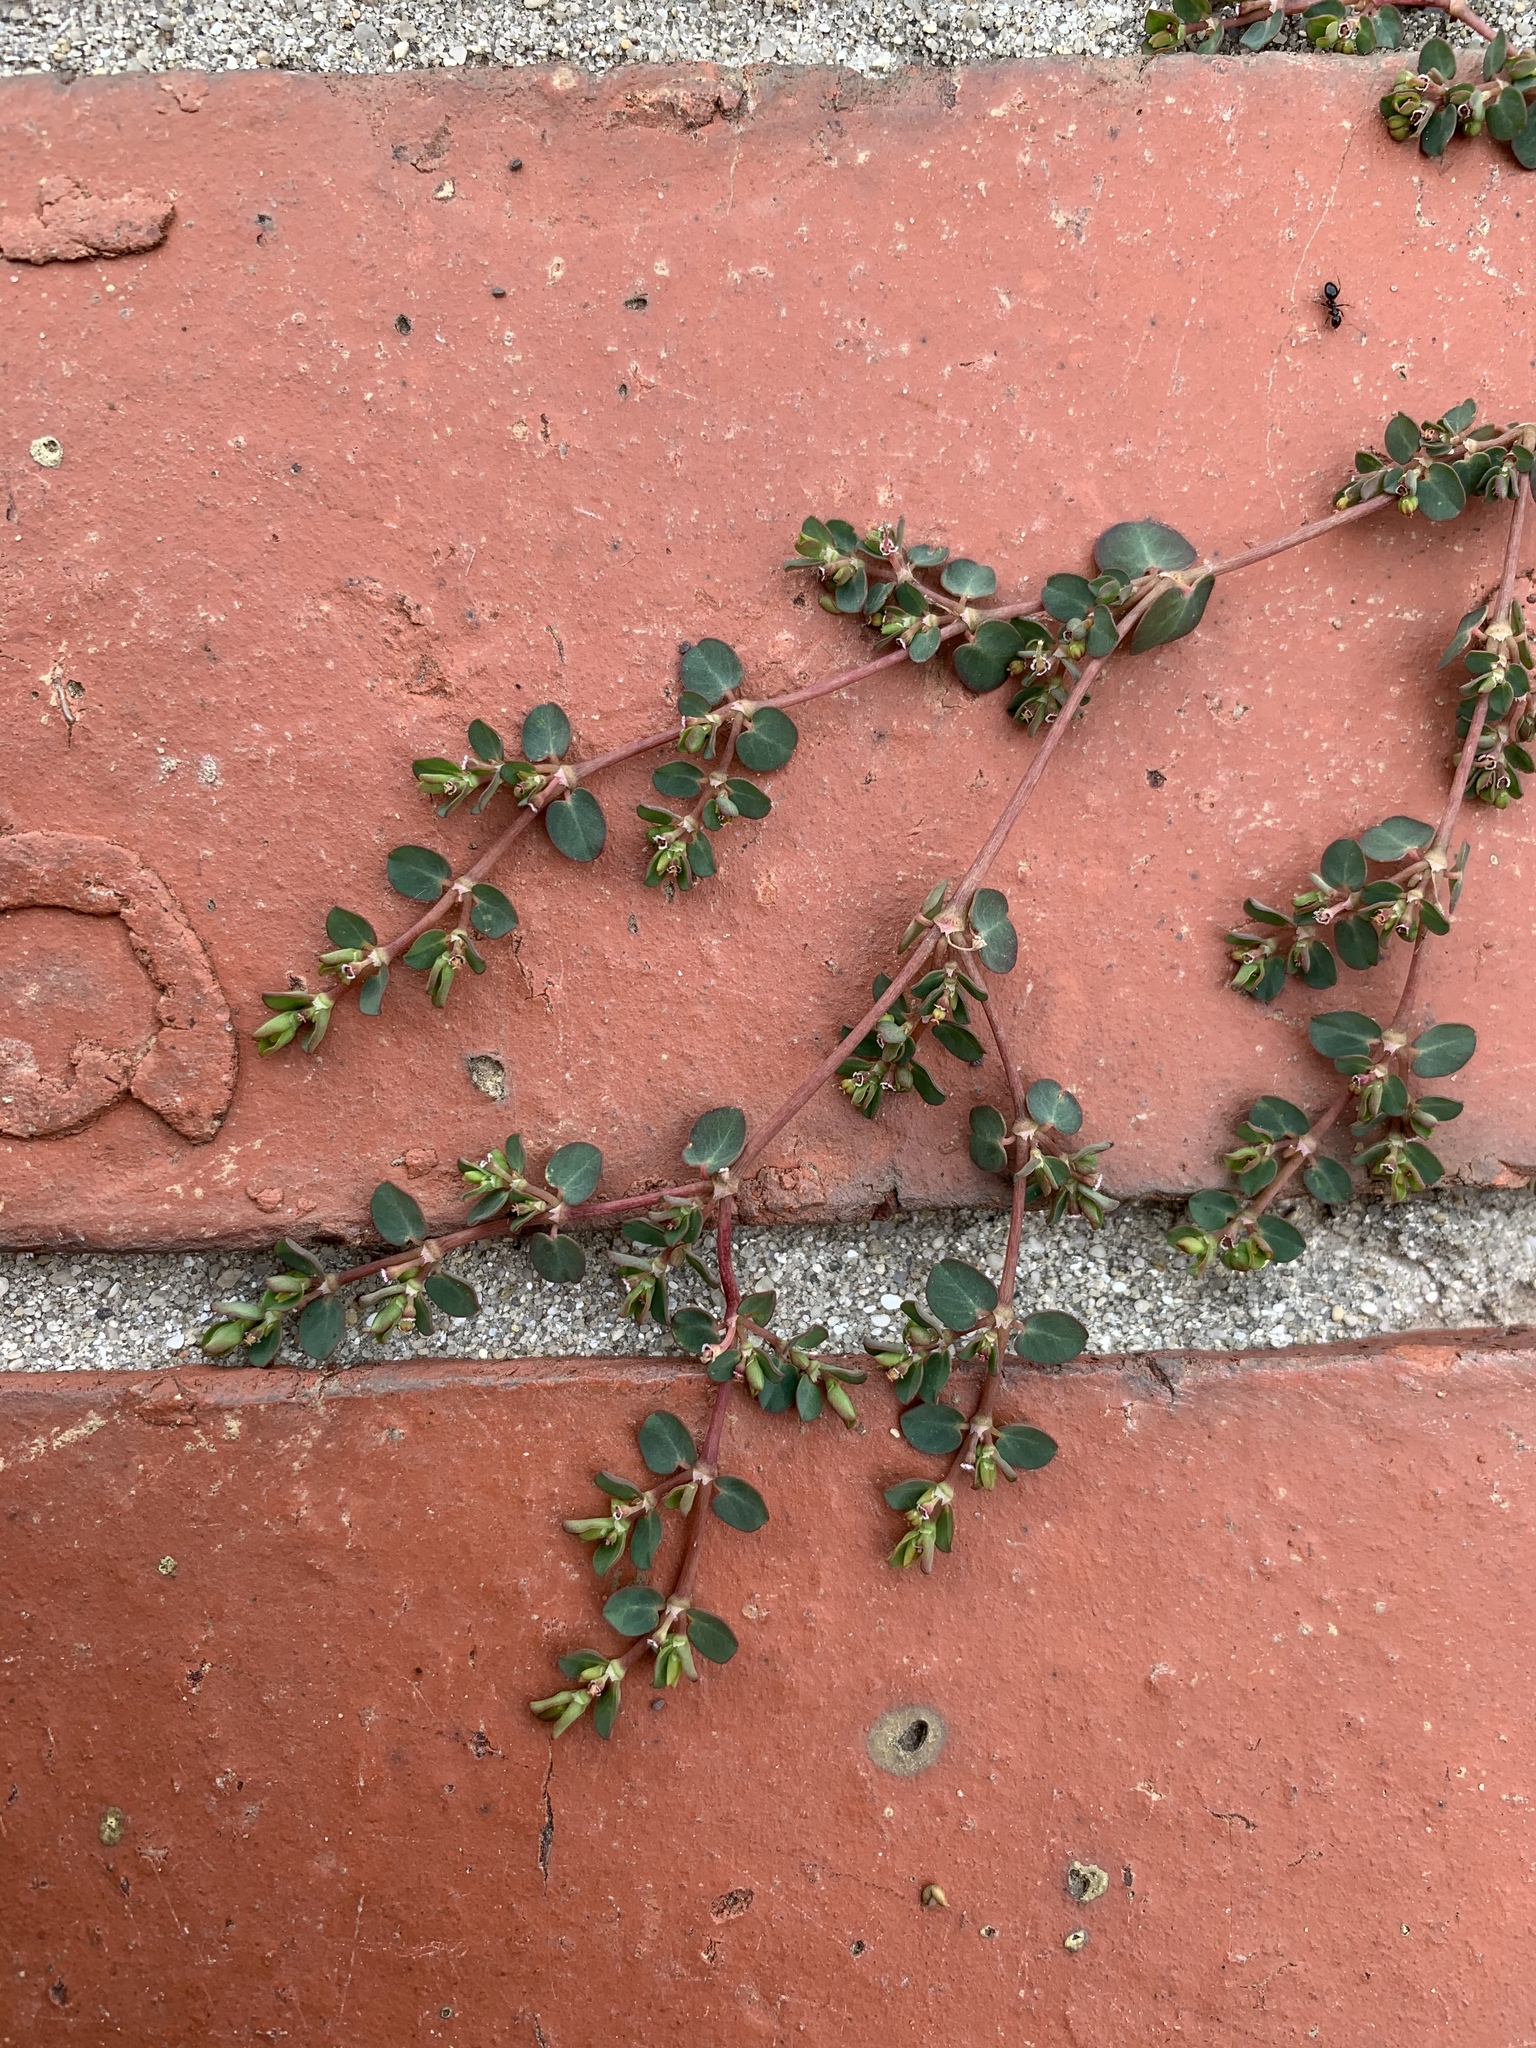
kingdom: Plantae
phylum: Tracheophyta
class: Magnoliopsida
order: Malpighiales
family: Euphorbiaceae
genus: Euphorbia
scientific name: Euphorbia serpens
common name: Matted sandmat
